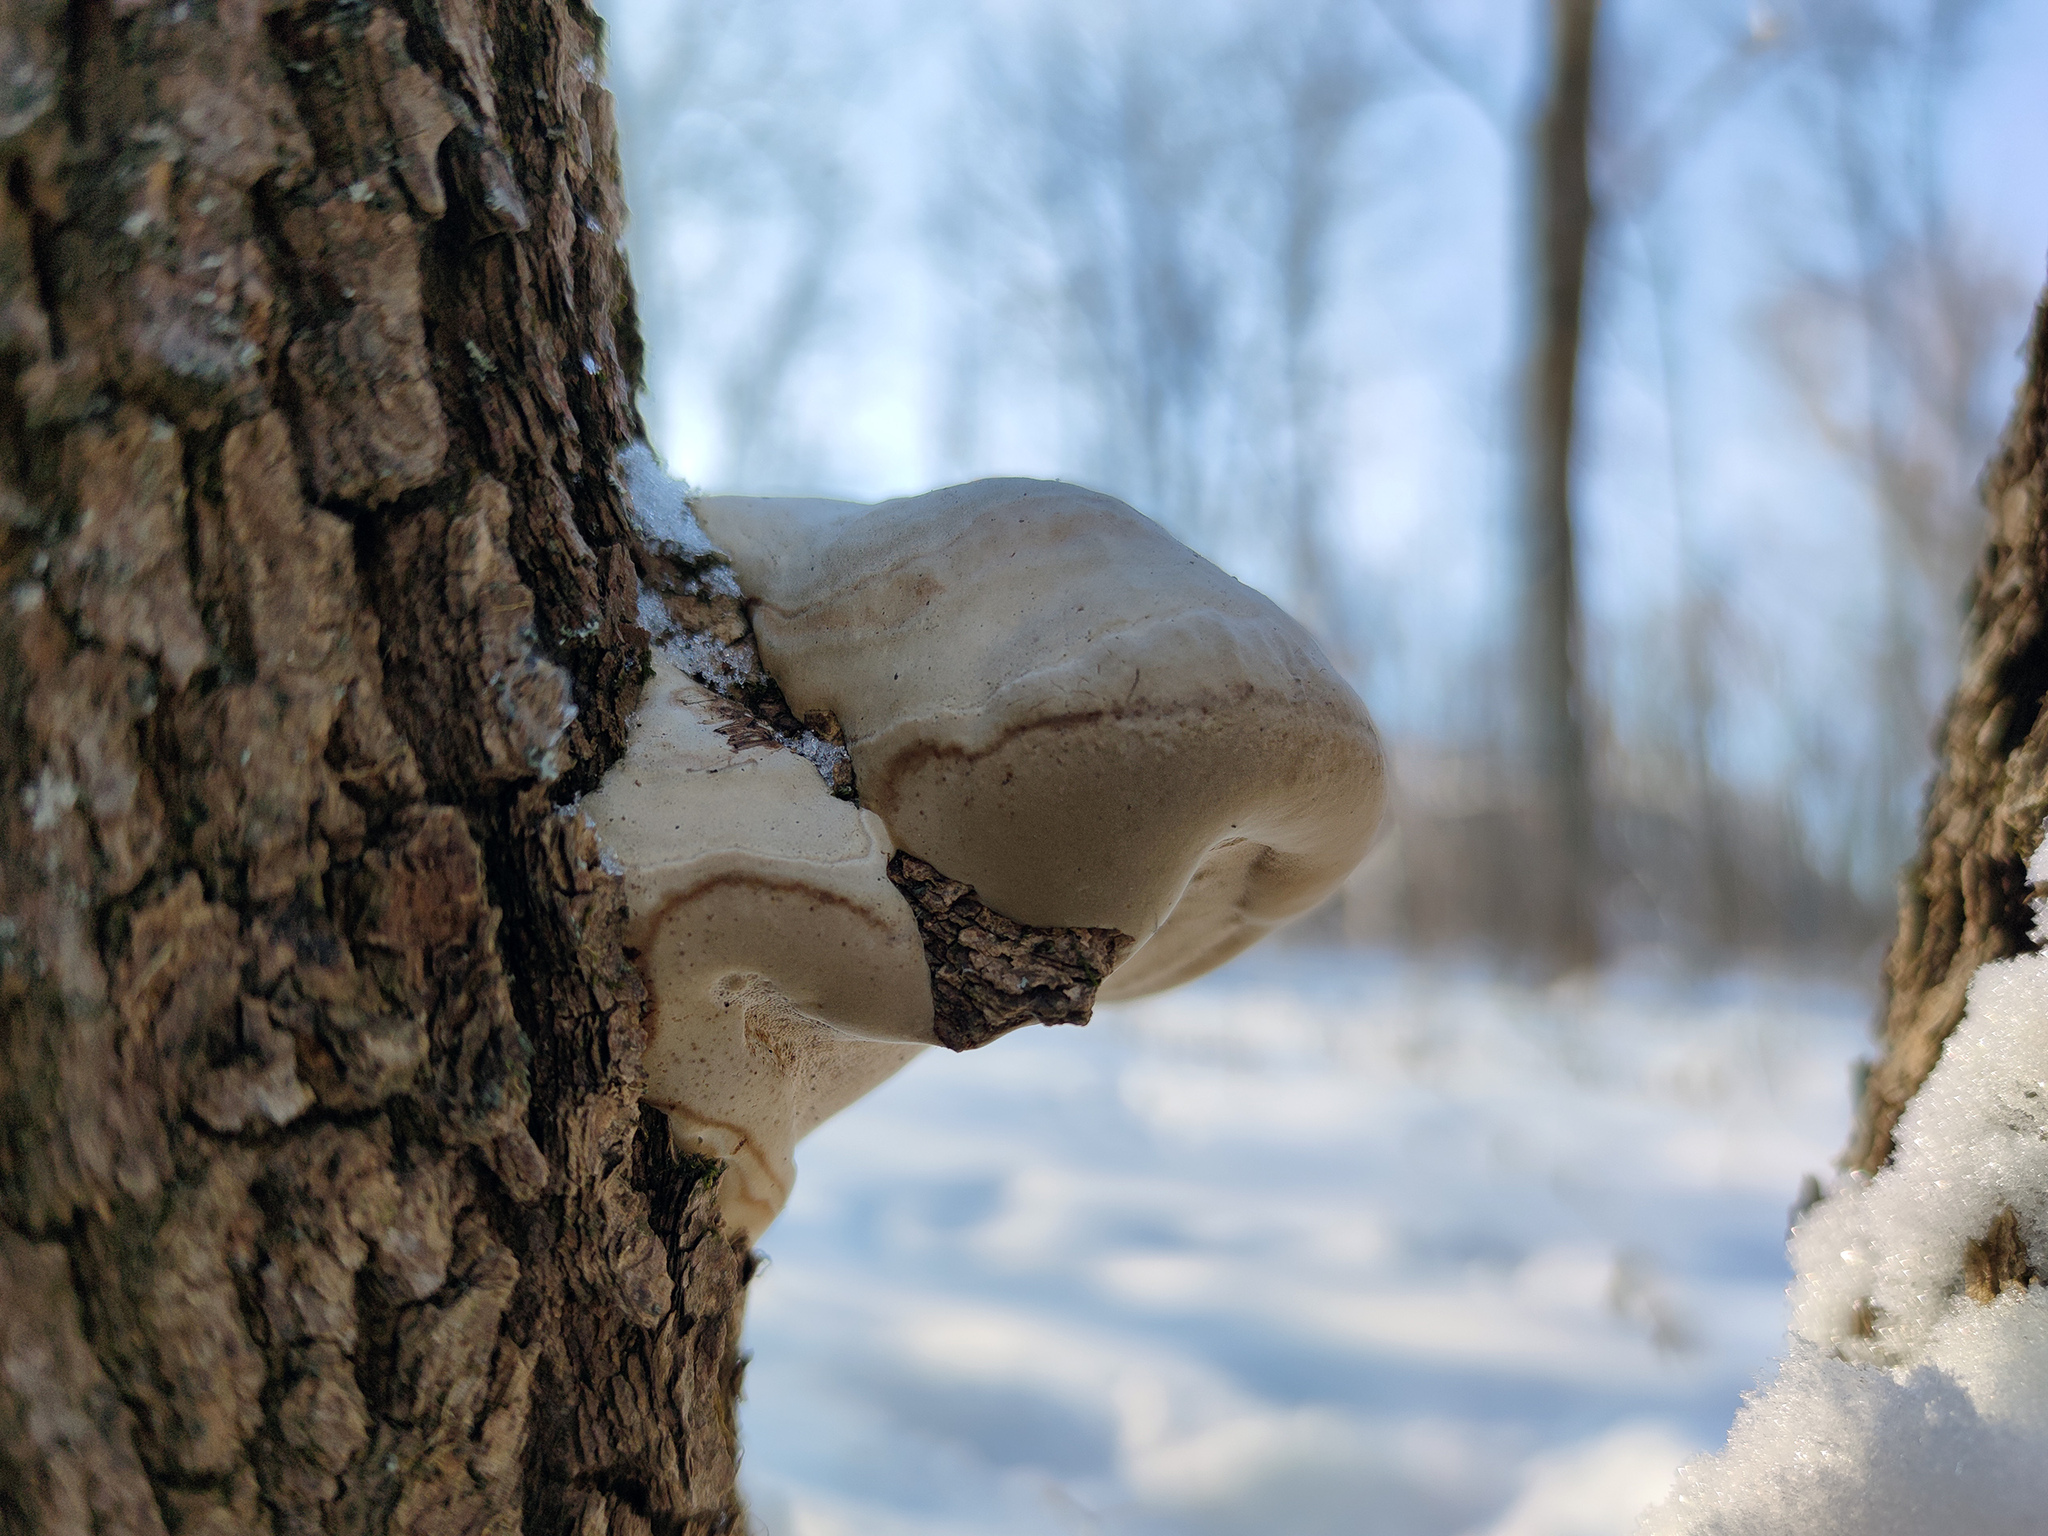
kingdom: Fungi
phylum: Basidiomycota
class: Agaricomycetes
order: Polyporales
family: Polyporaceae
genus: Fomes
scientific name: Fomes fomentarius
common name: Hoof fungus
